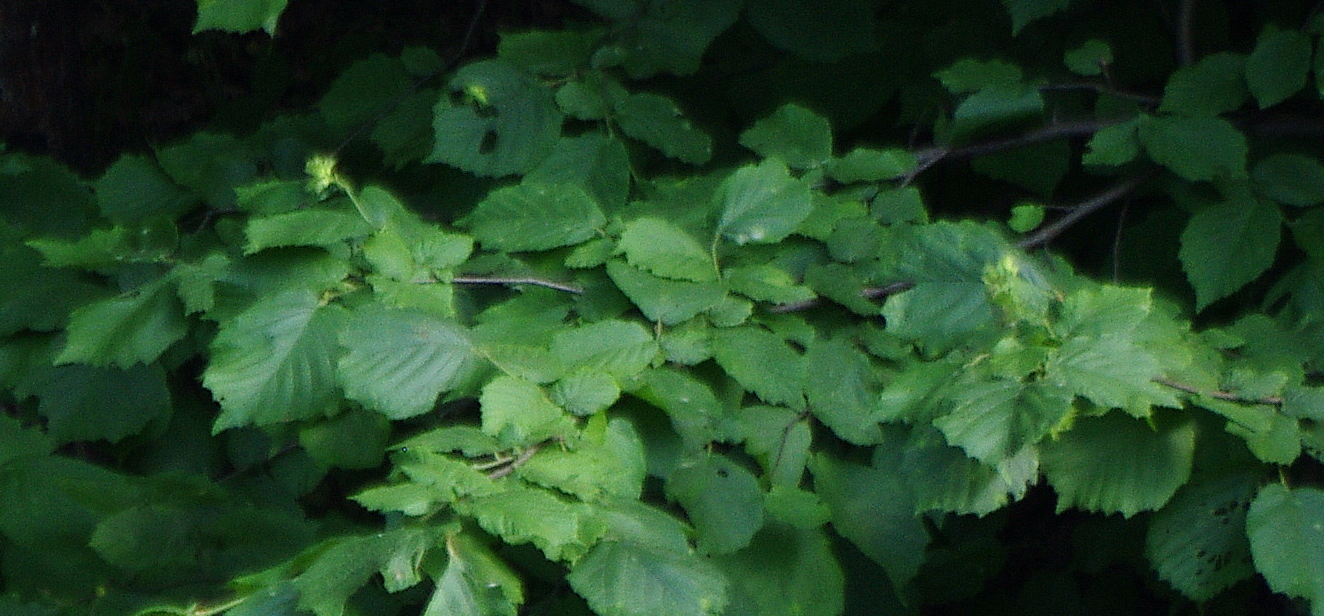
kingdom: Plantae
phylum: Tracheophyta
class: Magnoliopsida
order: Fagales
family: Betulaceae
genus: Corylus
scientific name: Corylus avellana
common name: European hazel
